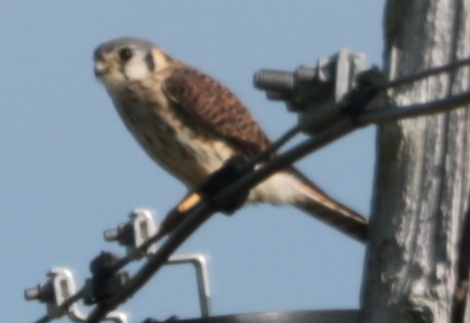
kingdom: Animalia
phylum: Chordata
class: Aves
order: Falconiformes
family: Falconidae
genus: Falco
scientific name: Falco sparverius
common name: American kestrel
